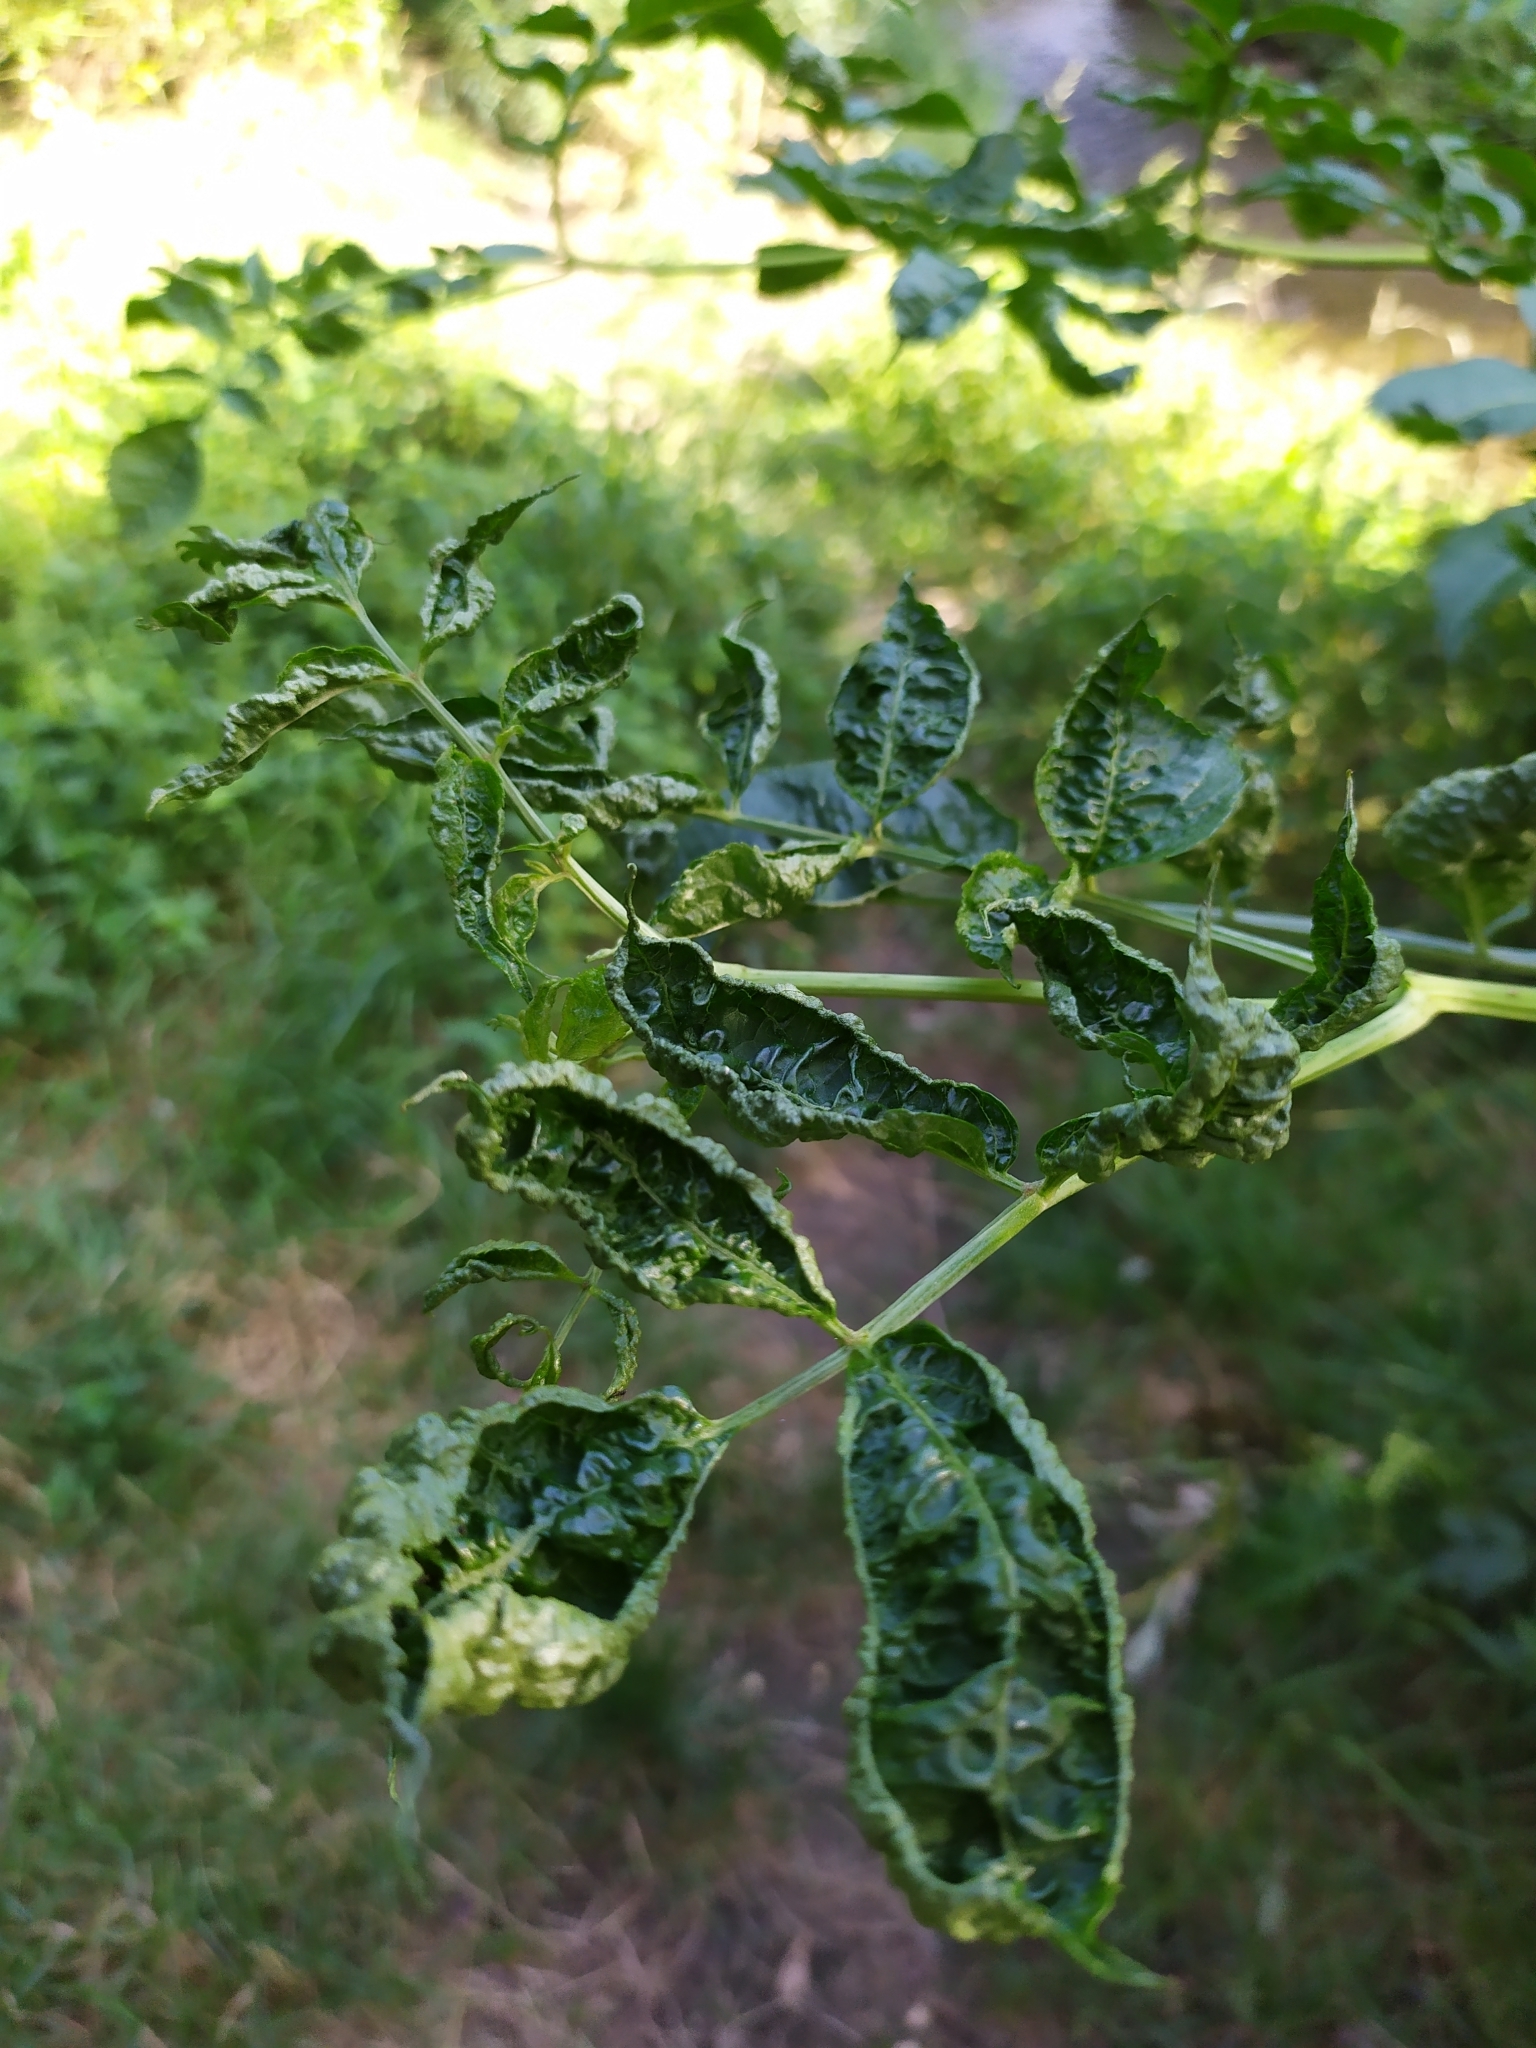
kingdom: Animalia
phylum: Arthropoda
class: Arachnida
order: Trombidiformes
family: Eriophyidae
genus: Epitrimerus
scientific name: Epitrimerus trilobus
